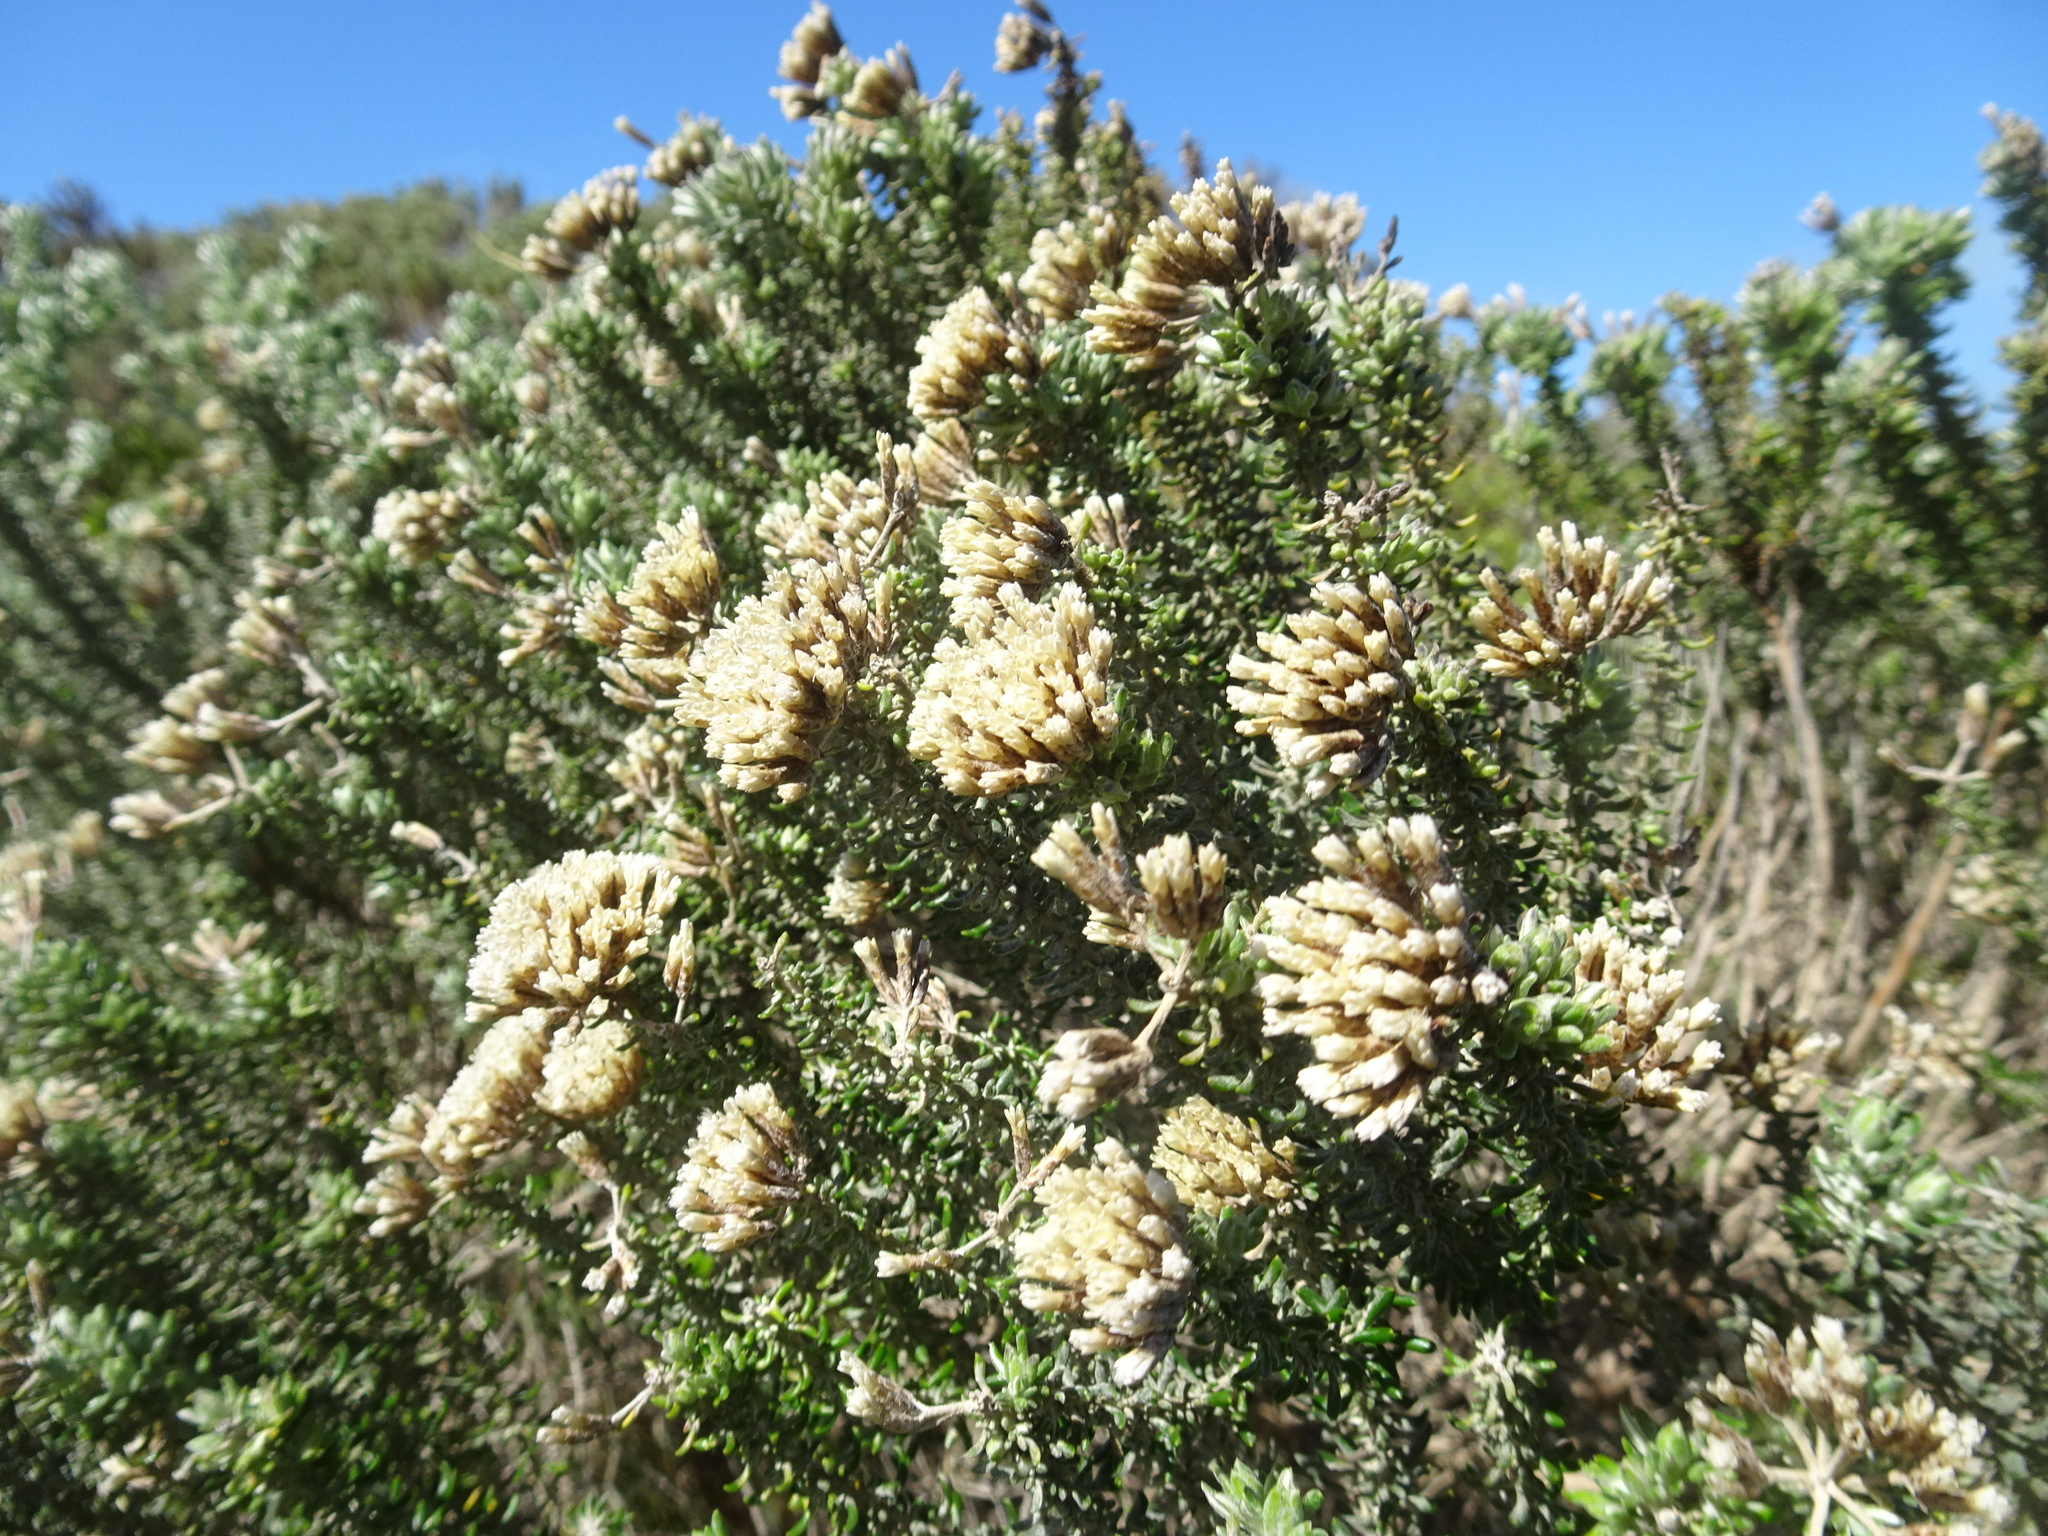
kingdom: Plantae
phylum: Tracheophyta
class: Magnoliopsida
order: Asterales
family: Asteraceae
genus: Metalasia
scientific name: Metalasia muricata
